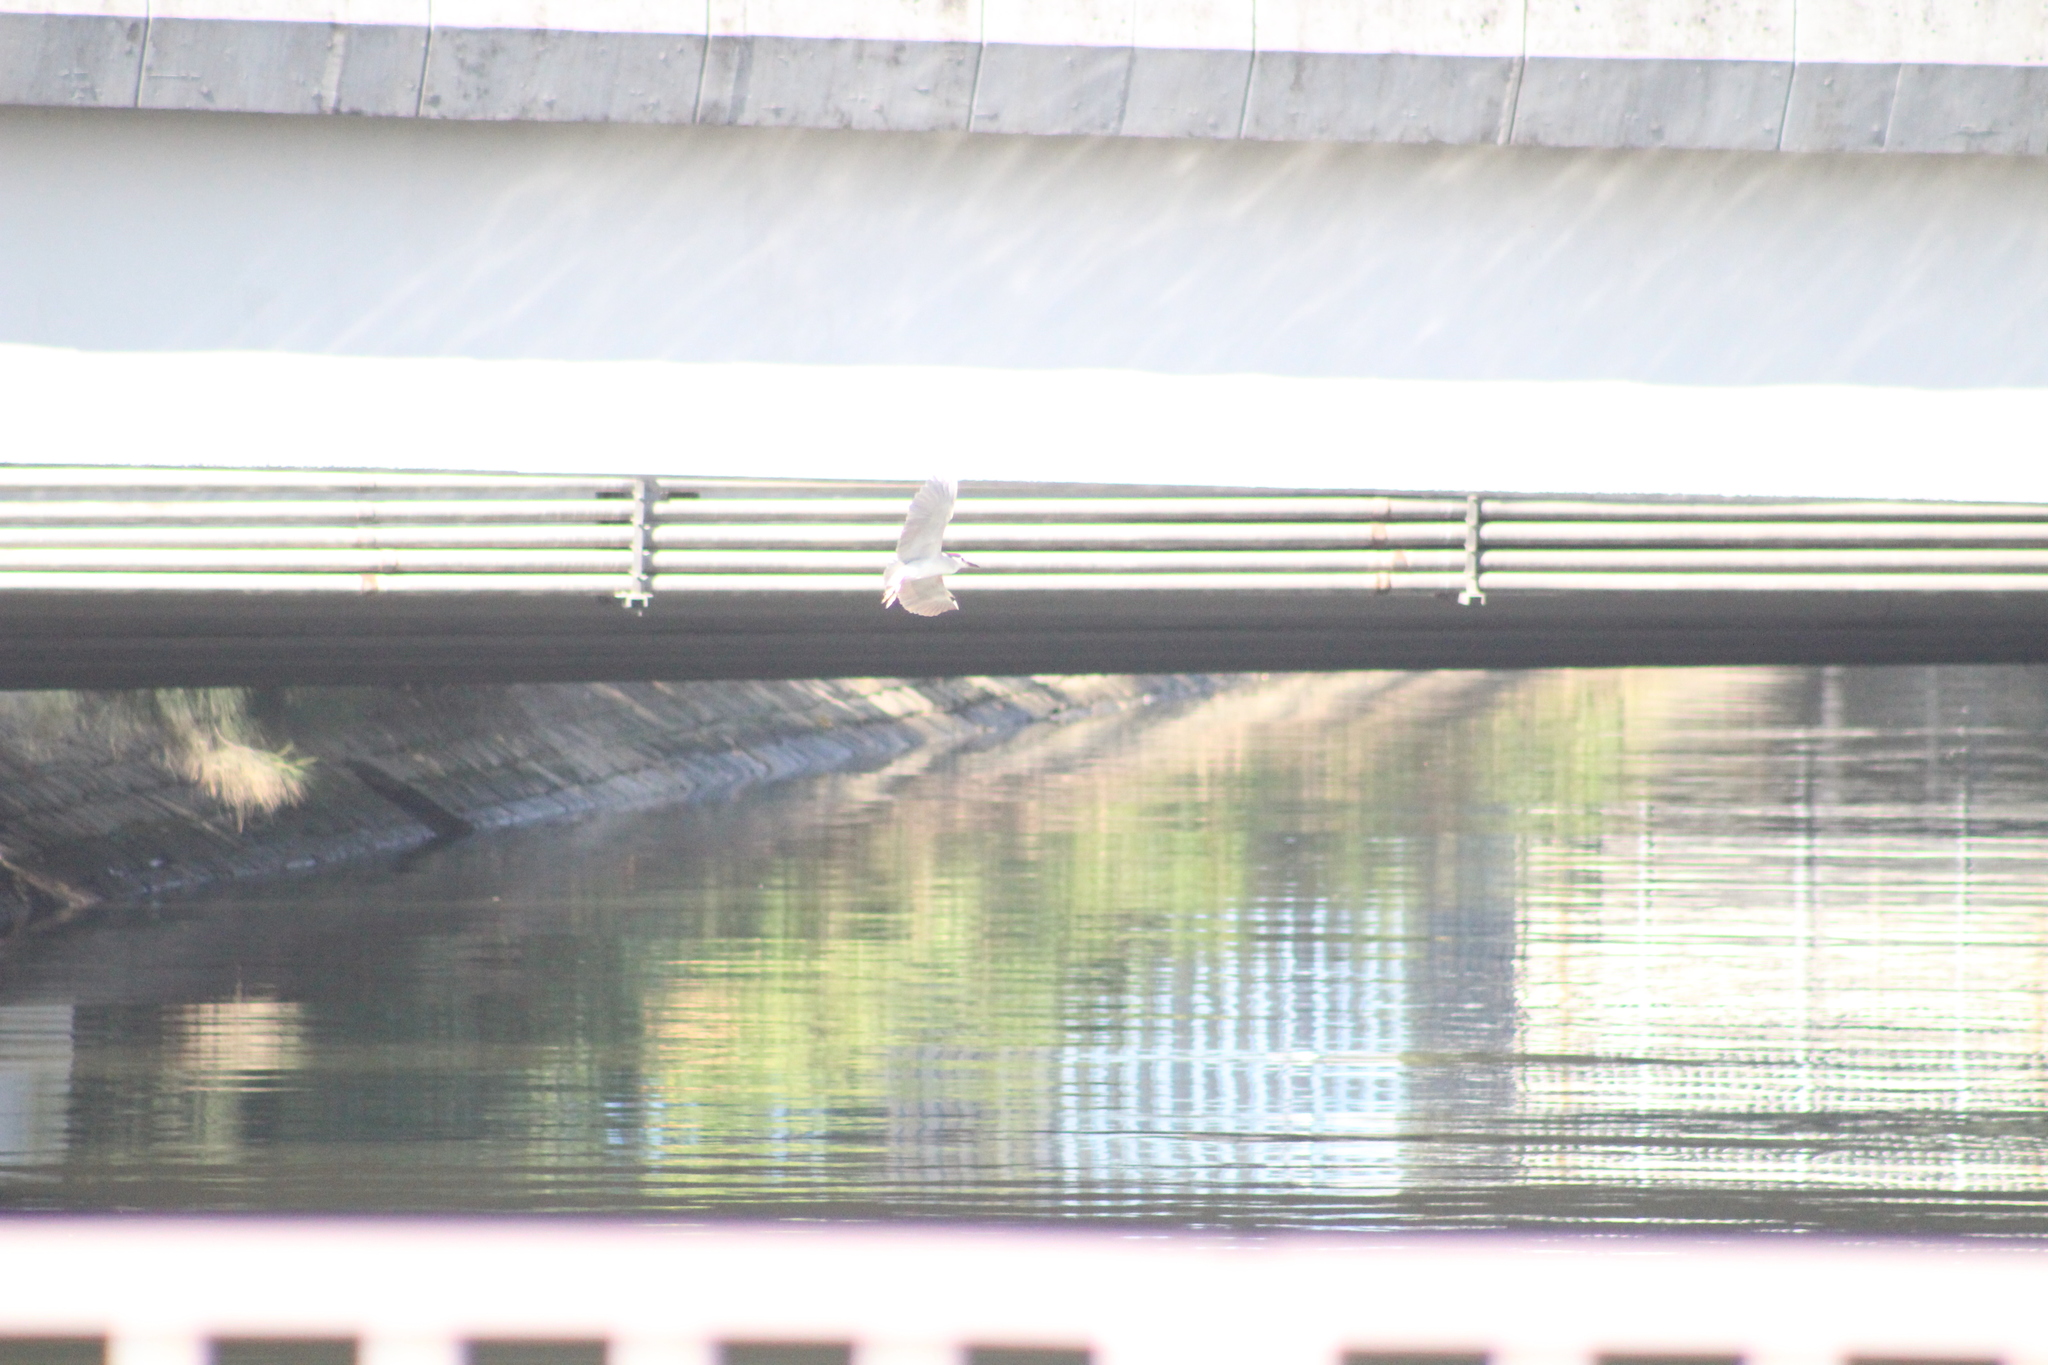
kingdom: Animalia
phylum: Chordata
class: Aves
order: Pelecaniformes
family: Ardeidae
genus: Nycticorax
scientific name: Nycticorax nycticorax
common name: Black-crowned night heron
